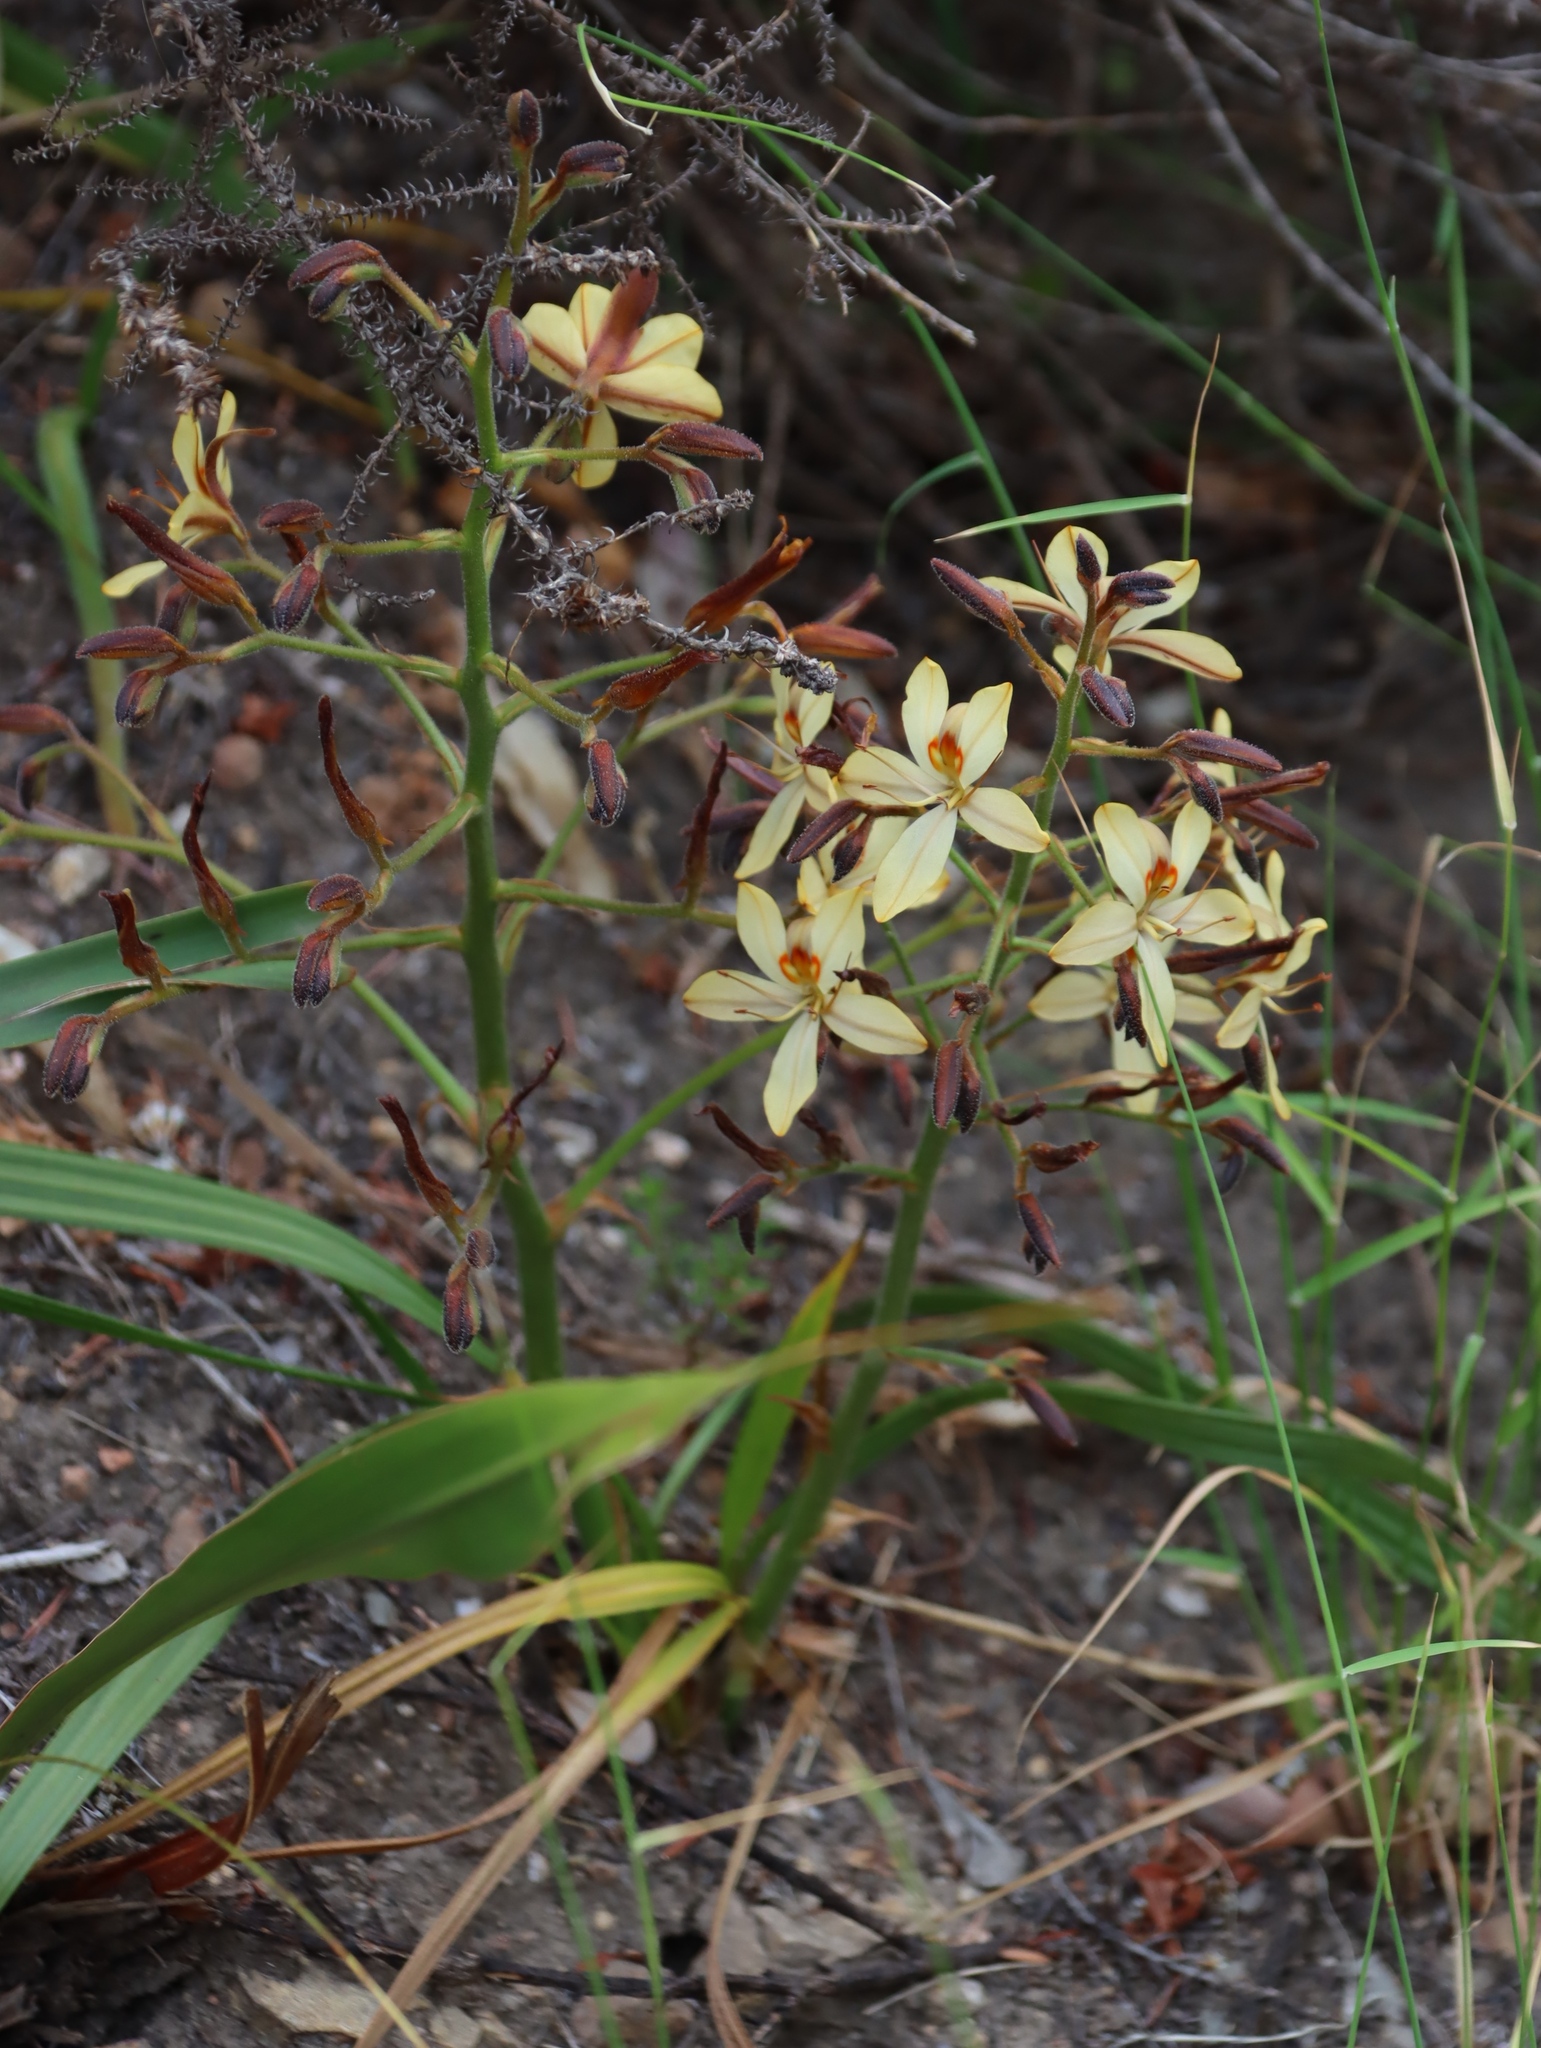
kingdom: Plantae
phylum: Tracheophyta
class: Liliopsida
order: Commelinales
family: Haemodoraceae
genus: Wachendorfia
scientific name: Wachendorfia paniculata
